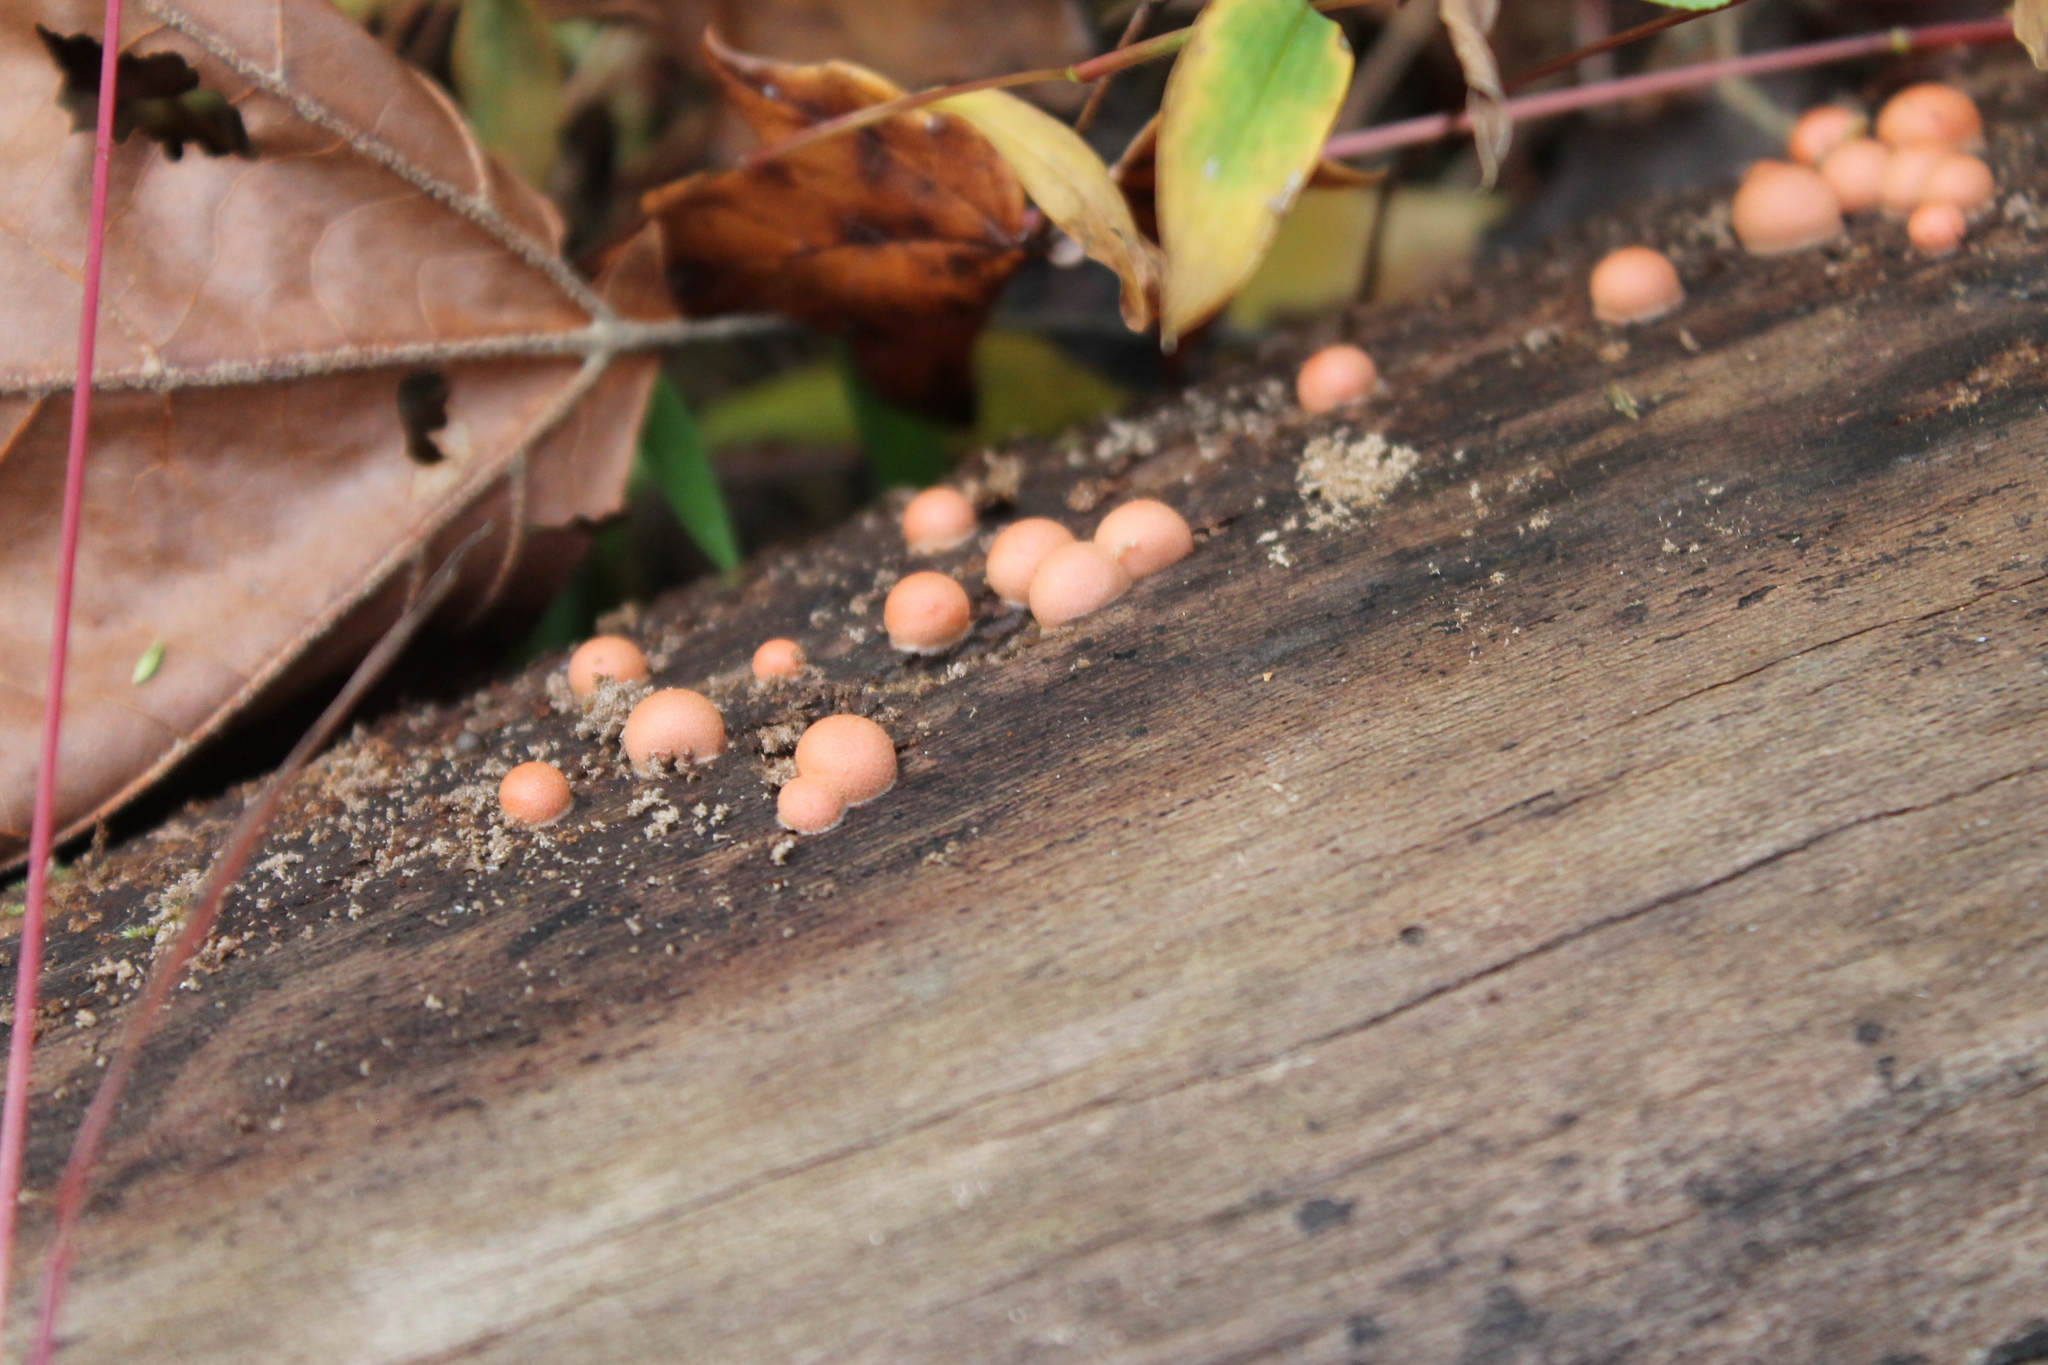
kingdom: Protozoa
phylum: Mycetozoa
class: Myxomycetes
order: Cribrariales
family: Tubiferaceae
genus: Lycogala
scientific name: Lycogala epidendrum
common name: Wolf's milk
